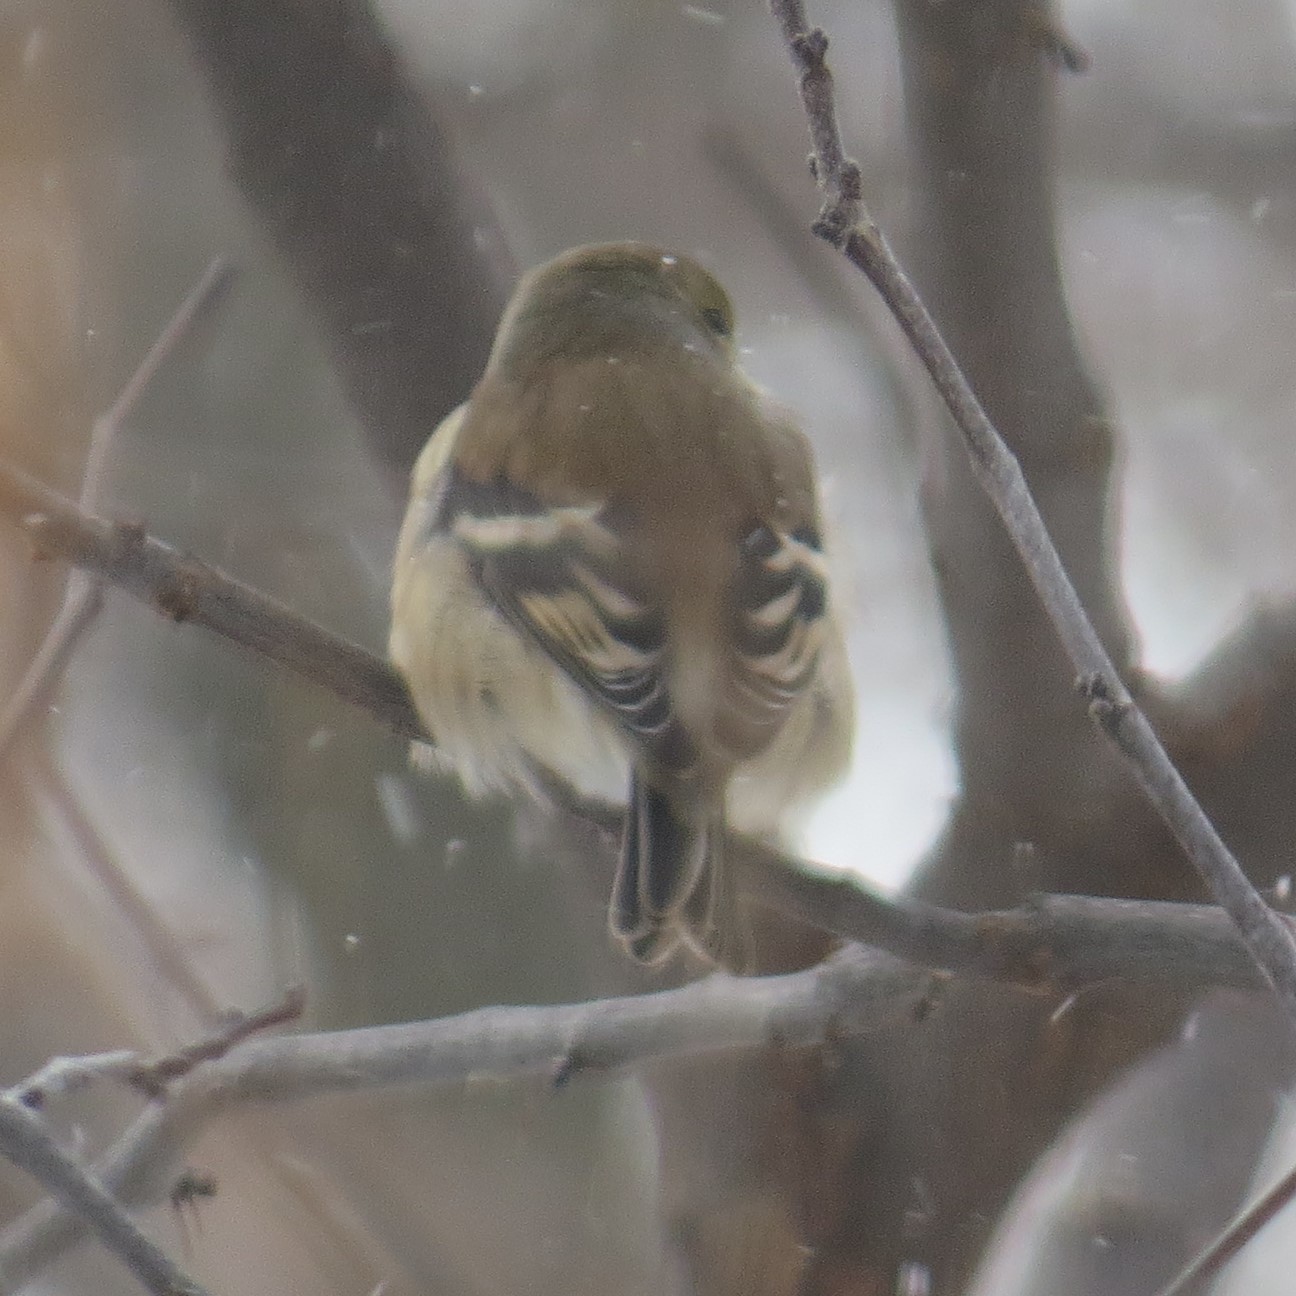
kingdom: Animalia
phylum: Chordata
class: Aves
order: Passeriformes
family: Fringillidae
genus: Spinus
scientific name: Spinus tristis
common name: American goldfinch
